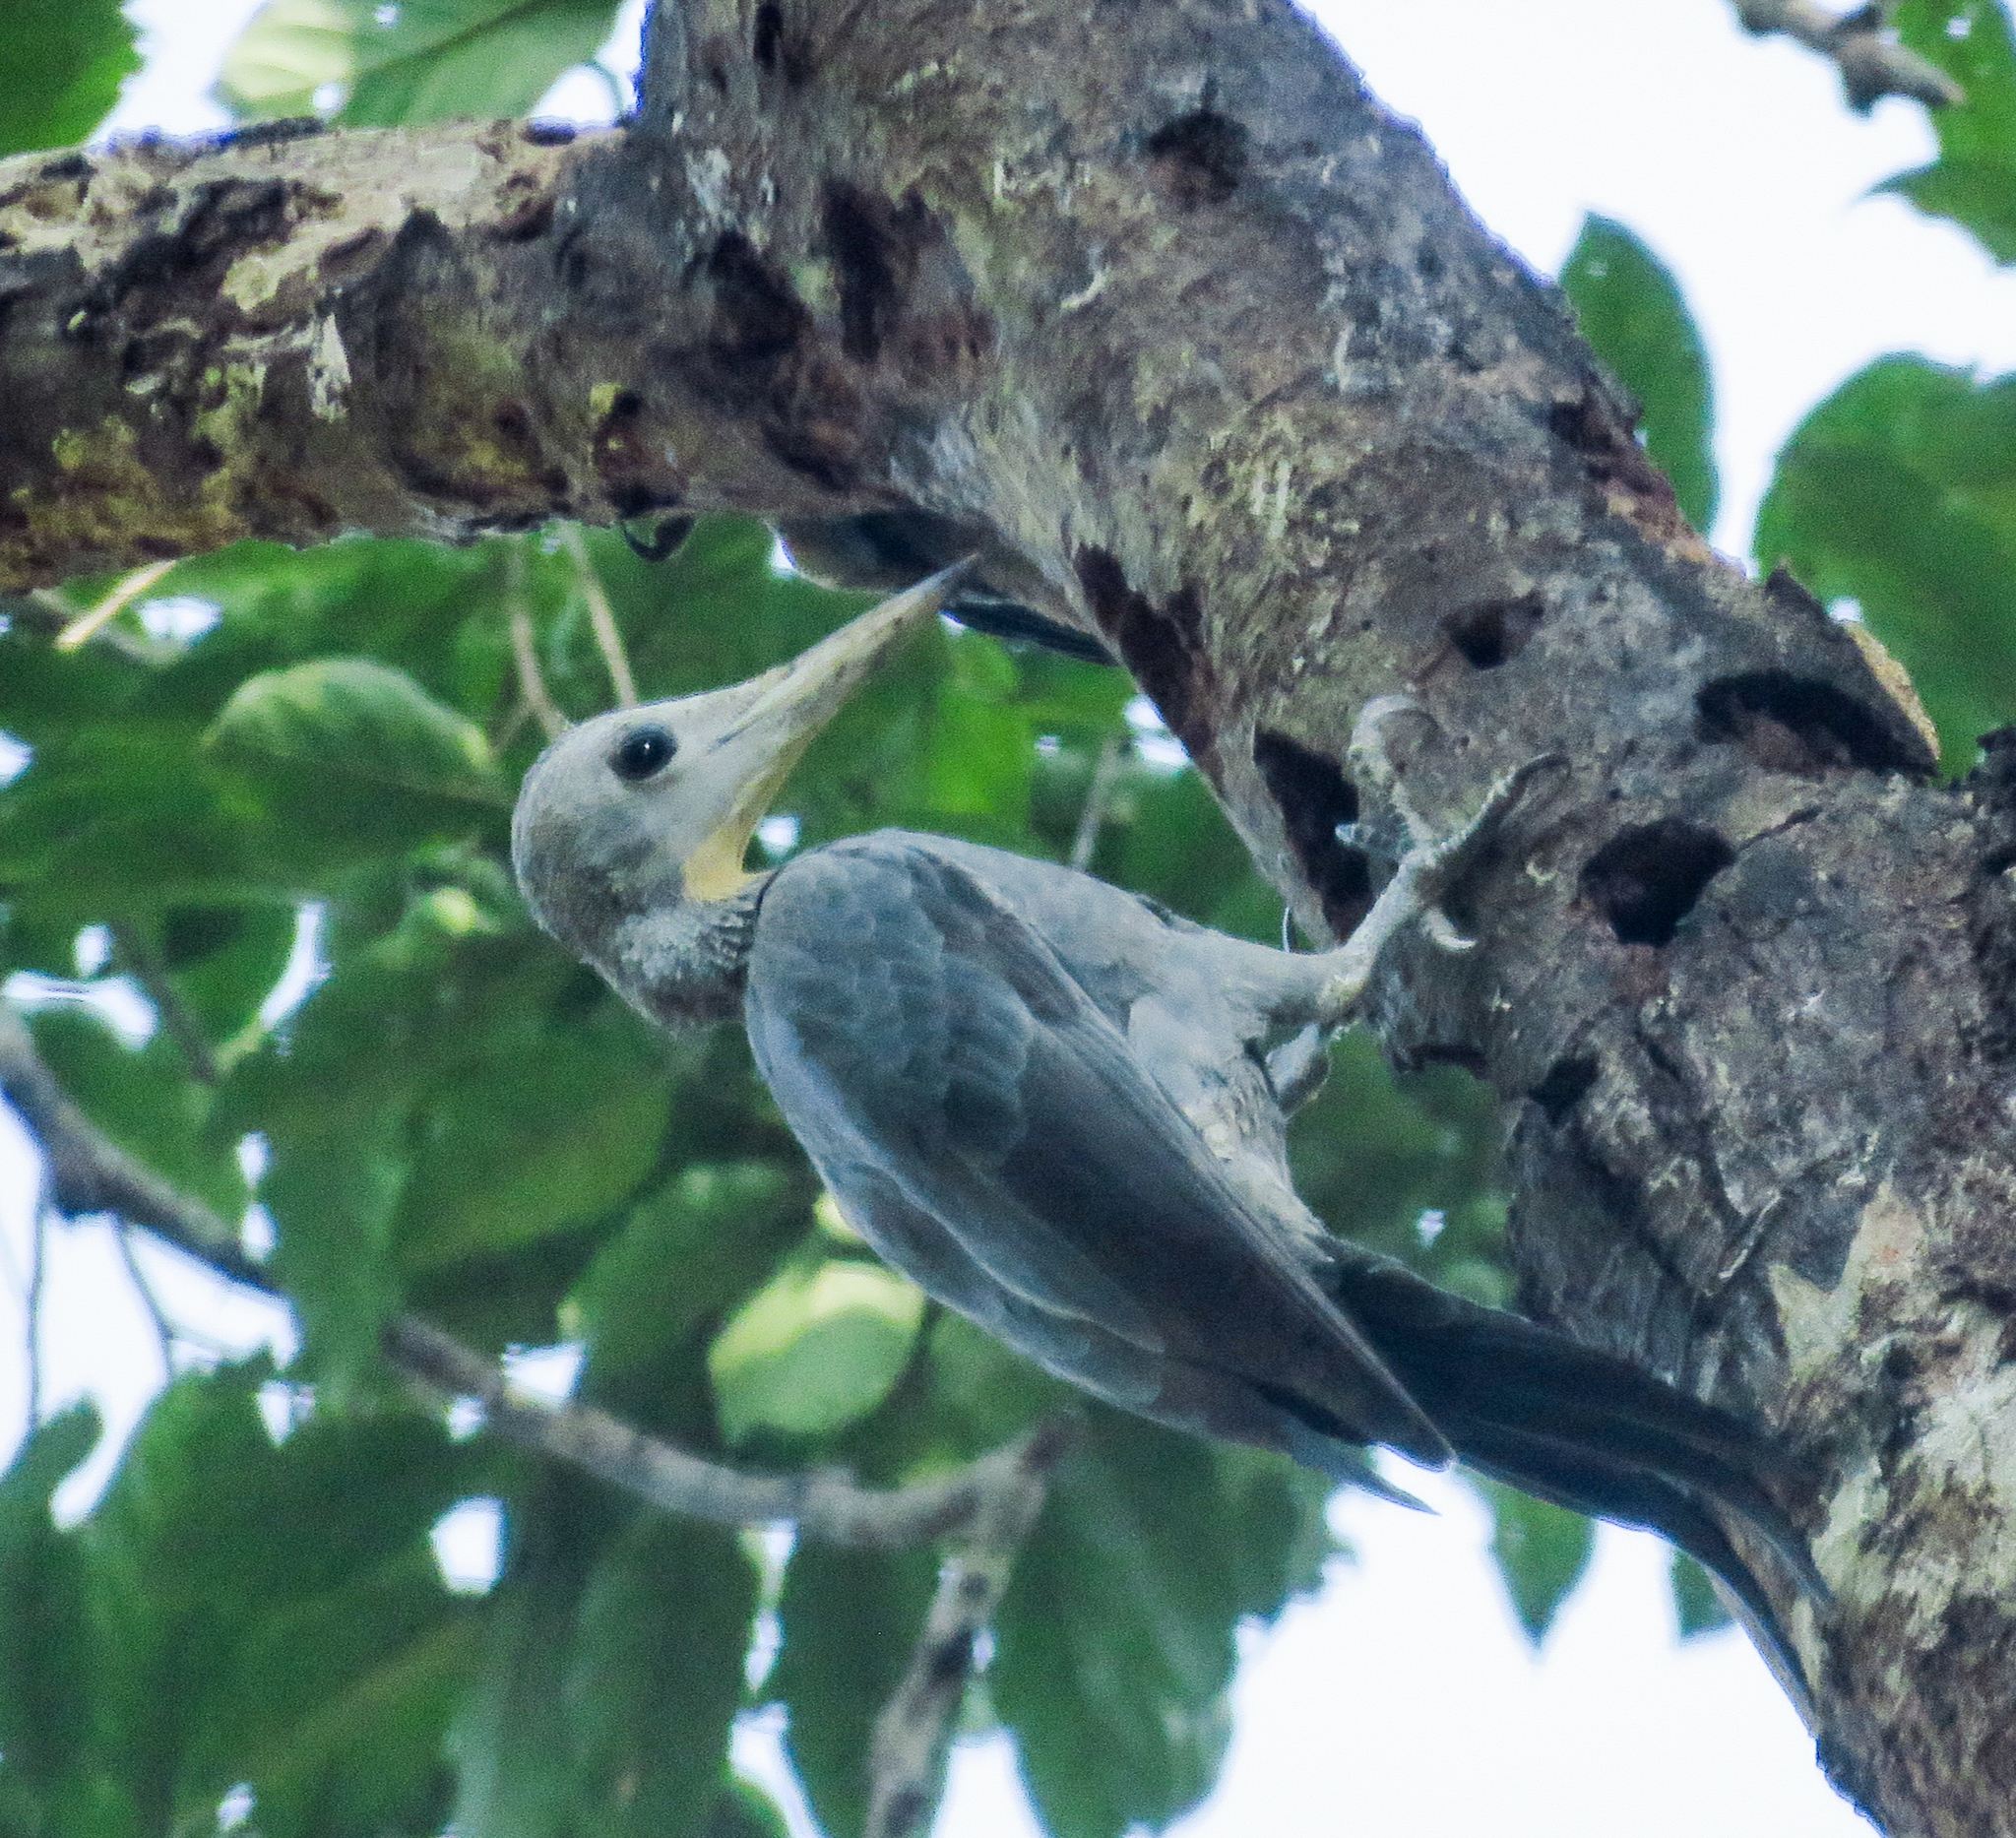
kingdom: Animalia
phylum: Chordata
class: Aves
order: Piciformes
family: Picidae
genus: Mulleripicus
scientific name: Mulleripicus pulverulentus
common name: Great slaty woodpecker
